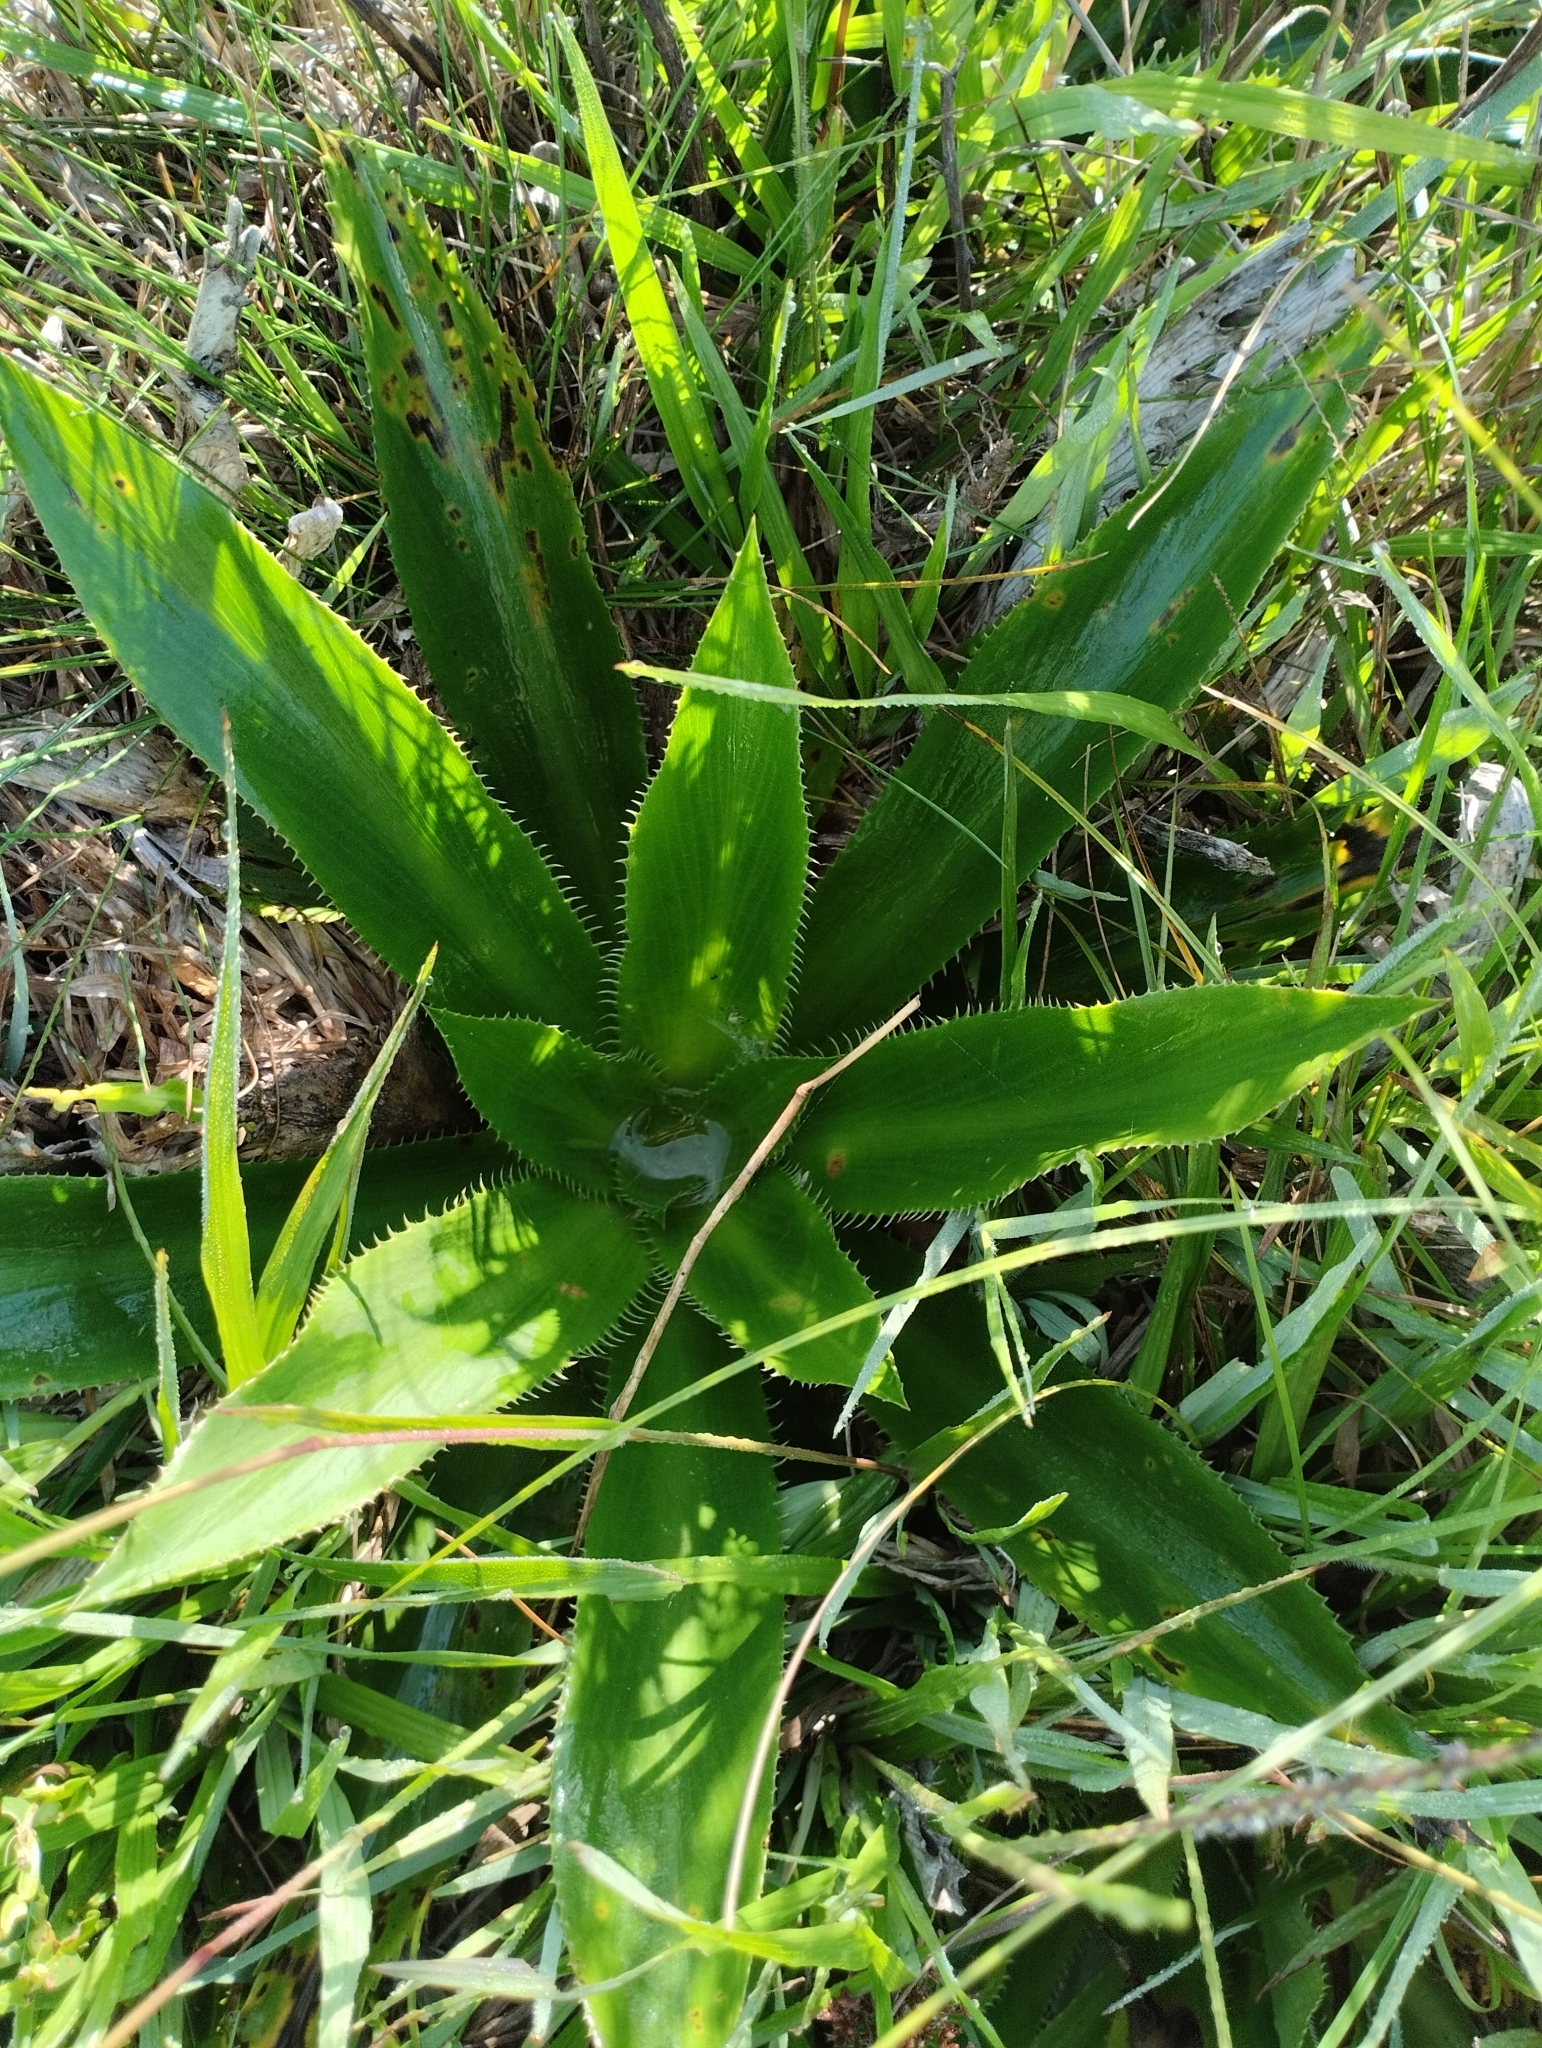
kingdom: Plantae
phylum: Tracheophyta
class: Magnoliopsida
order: Apiales
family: Apiaceae
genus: Eryngium
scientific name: Eryngium elegans
